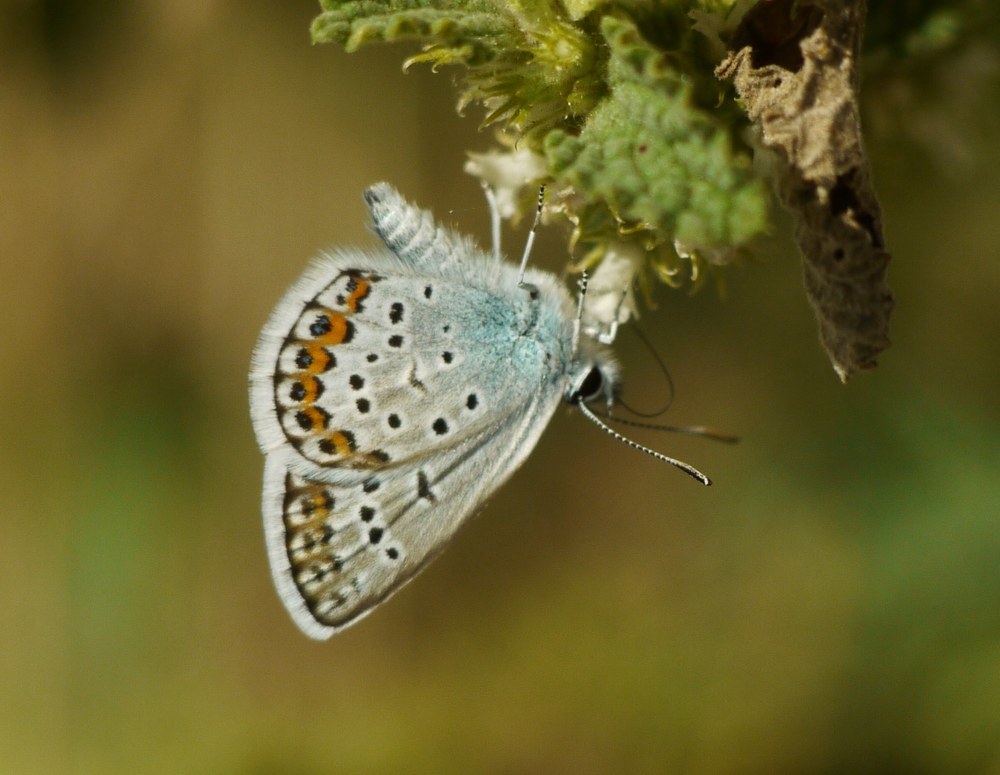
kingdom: Animalia
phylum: Arthropoda
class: Insecta
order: Lepidoptera
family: Lycaenidae
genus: Plebejus
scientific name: Plebejus argus
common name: Silver-studded blue
